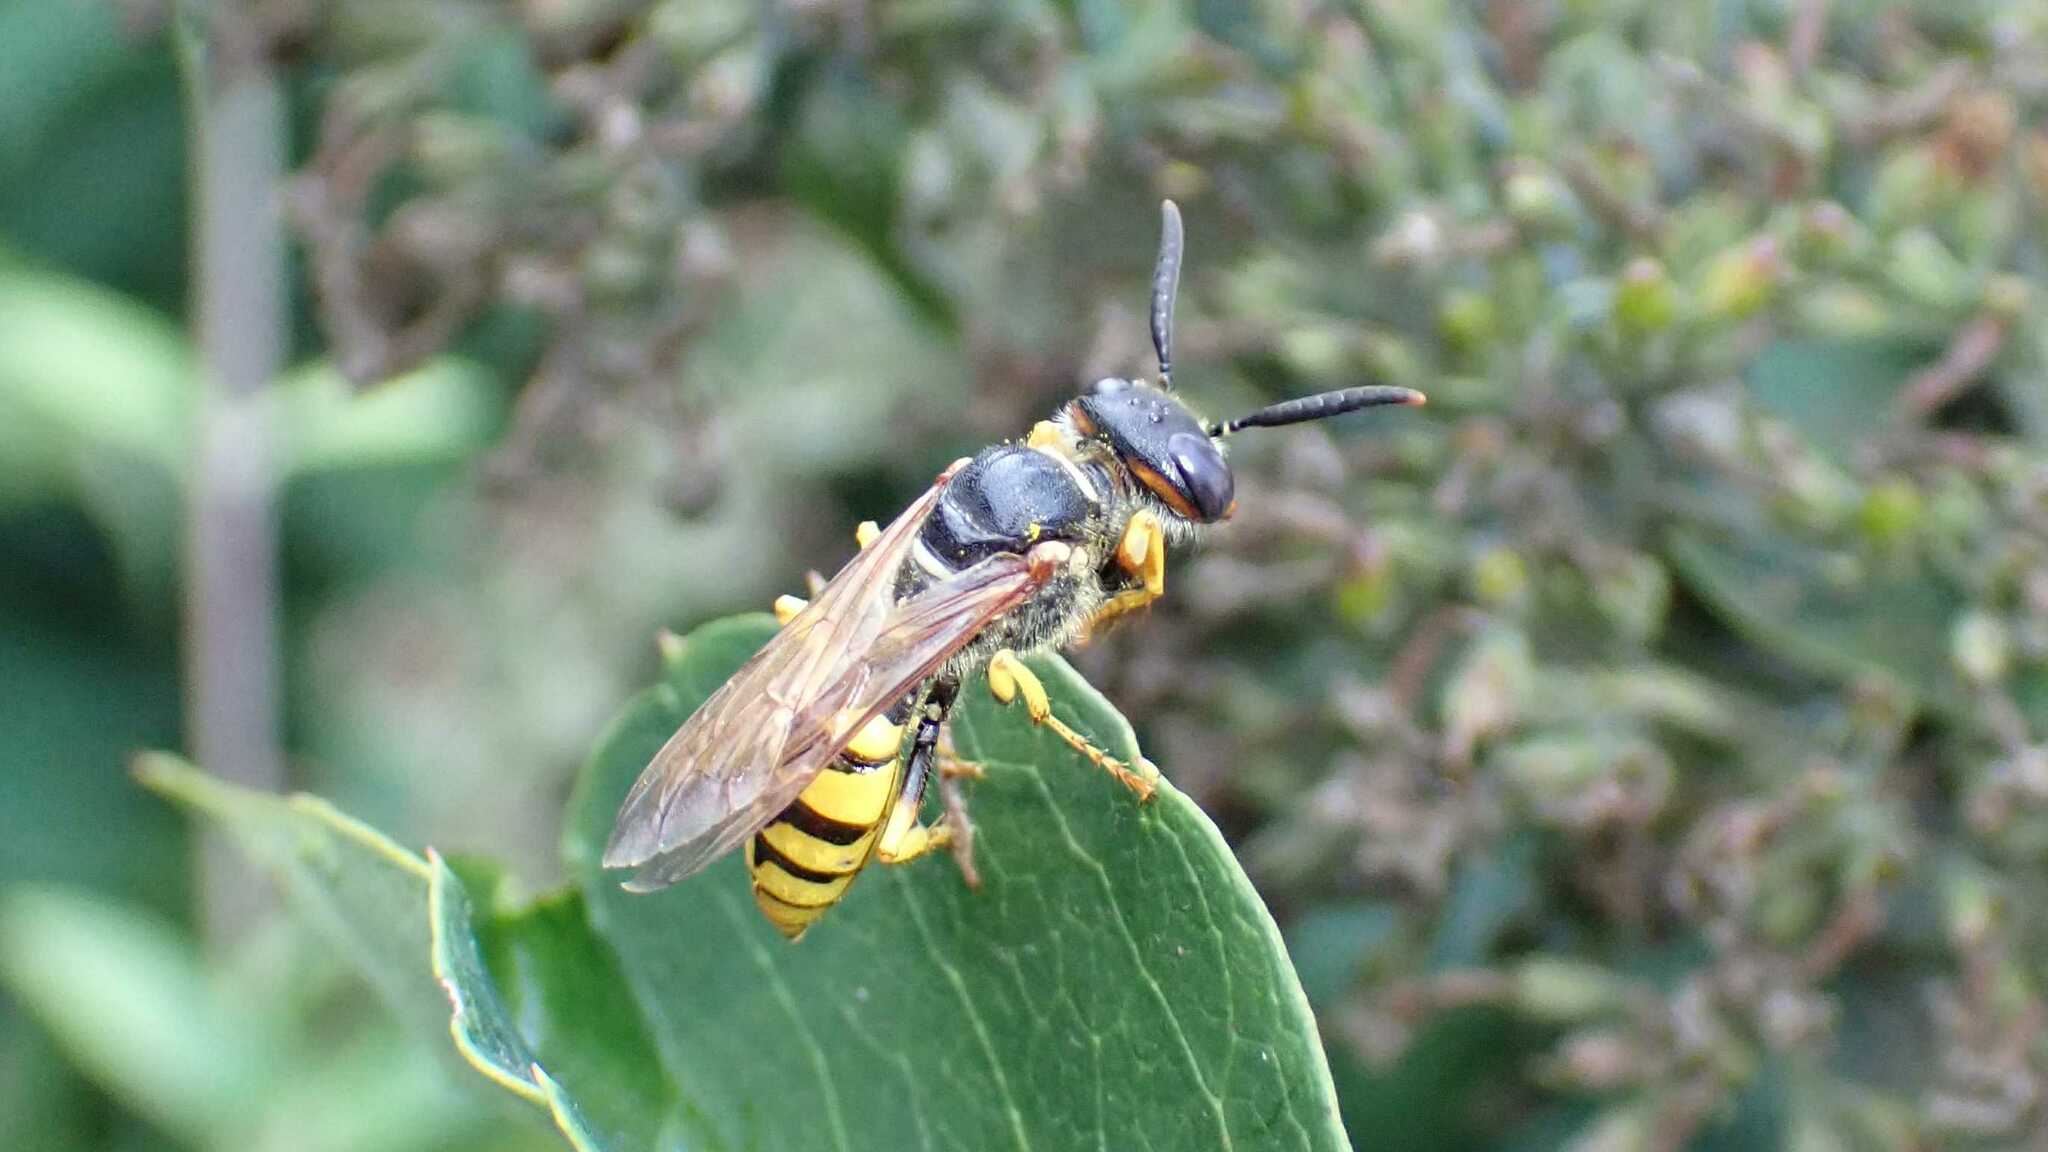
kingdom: Animalia
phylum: Arthropoda
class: Insecta
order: Hymenoptera
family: Crabronidae
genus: Philanthus
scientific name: Philanthus triangulum
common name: Bee wolf
